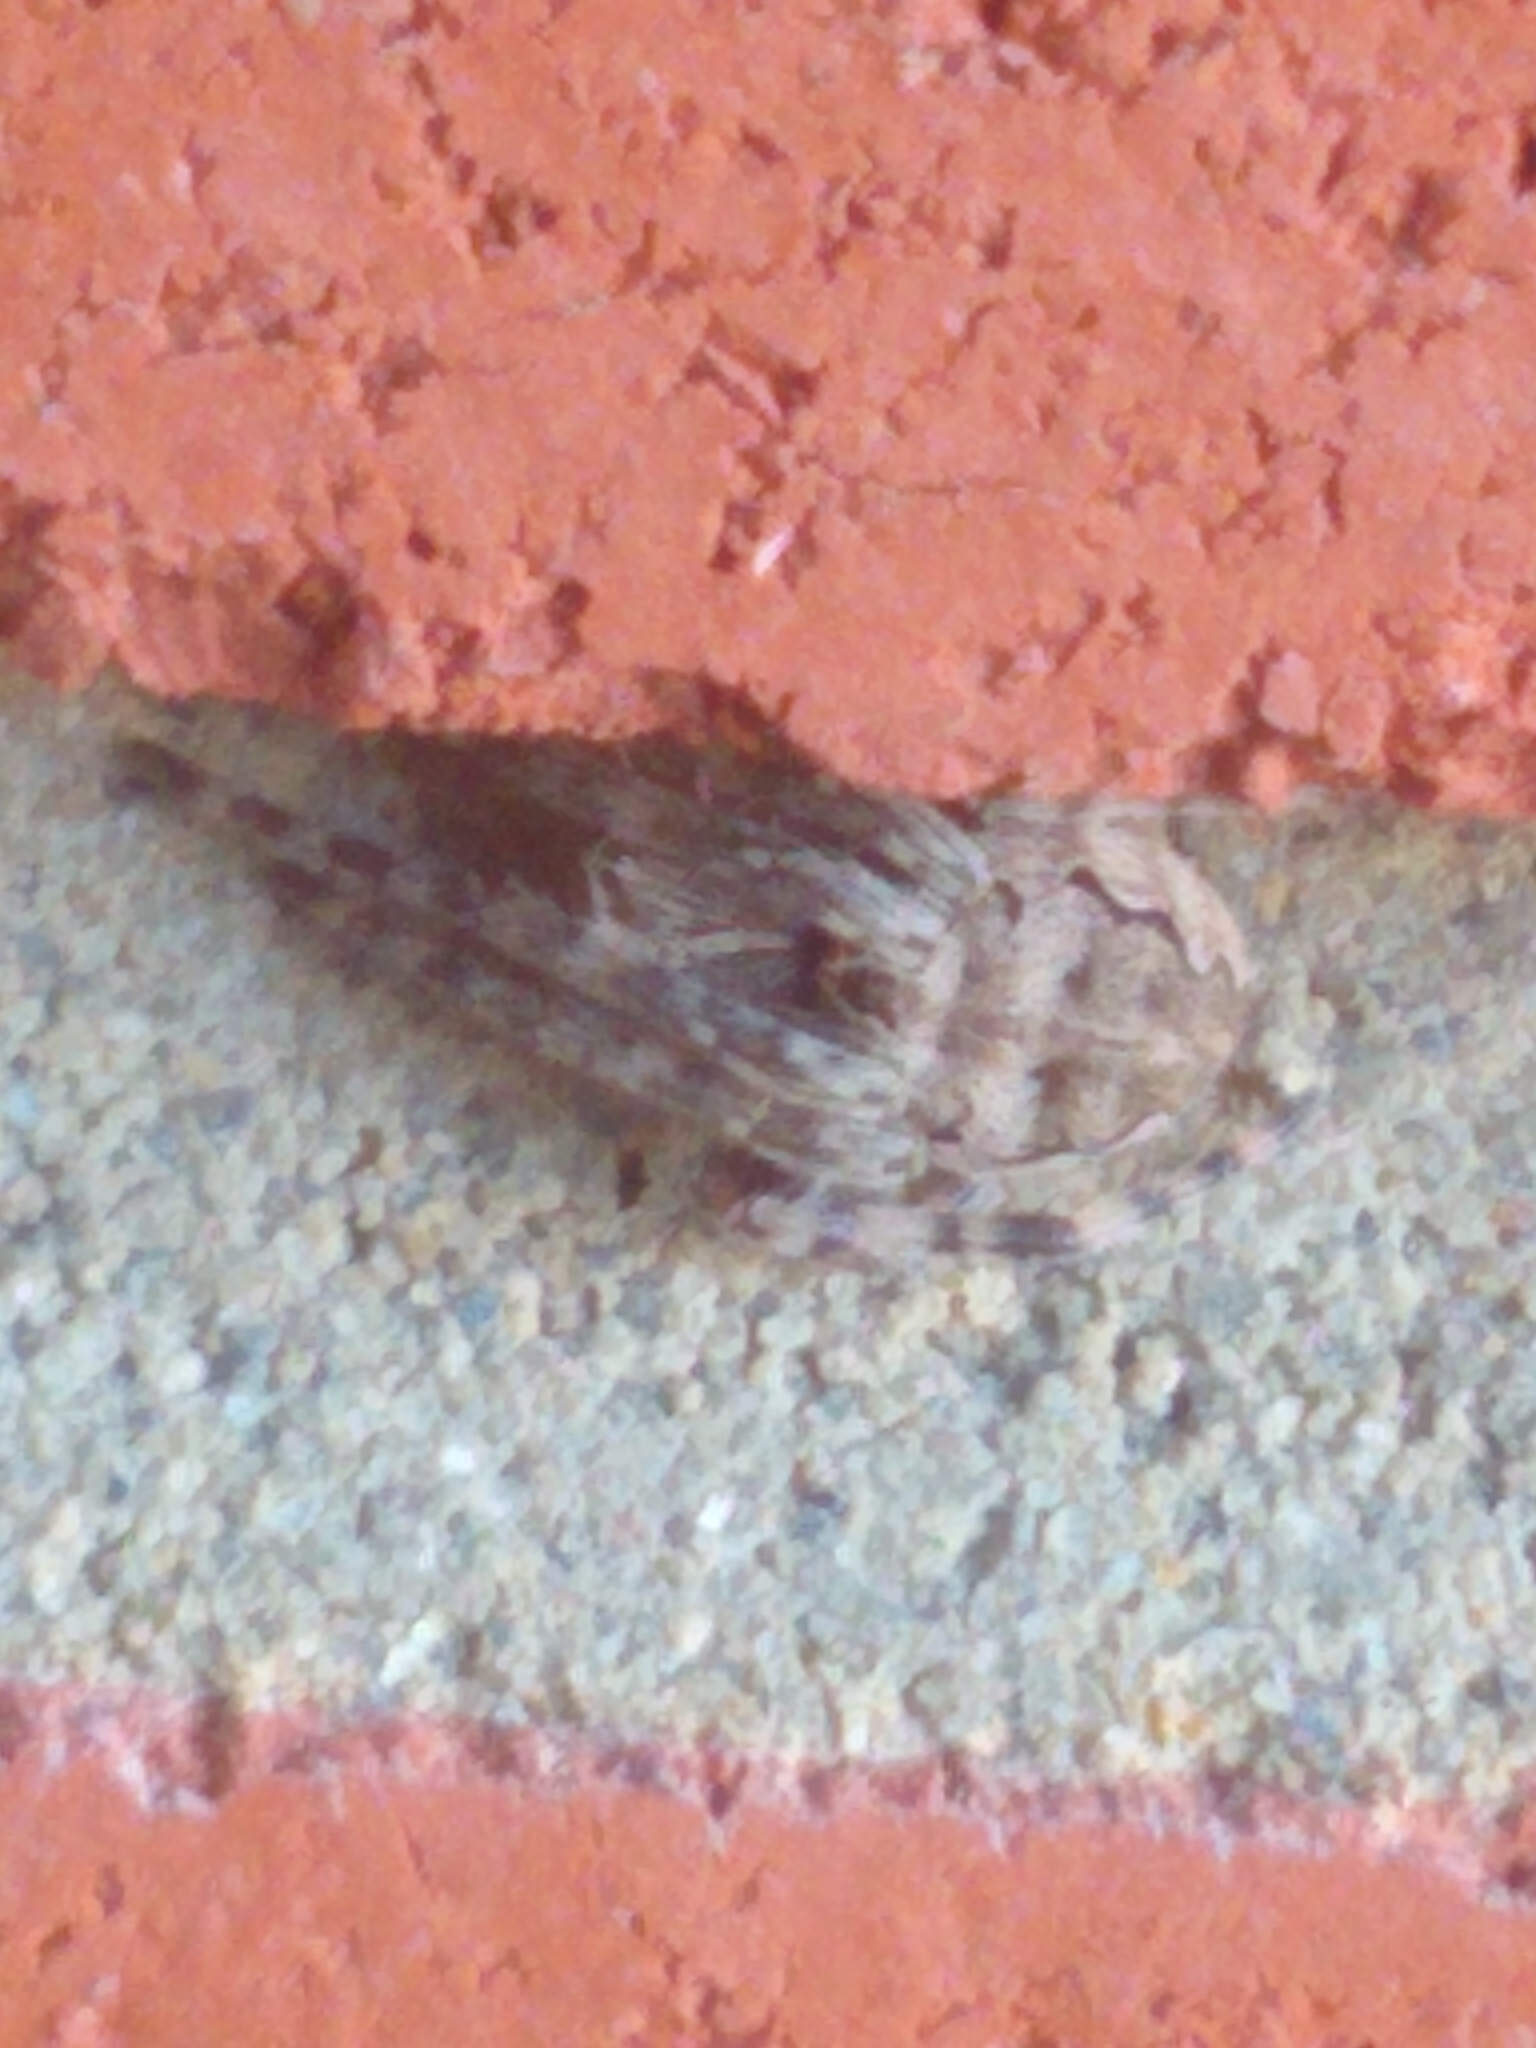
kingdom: Animalia
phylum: Arthropoda
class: Arachnida
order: Araneae
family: Araneidae
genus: Larinioides
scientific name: Larinioides sclopetarius
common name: Bridge orbweaver
